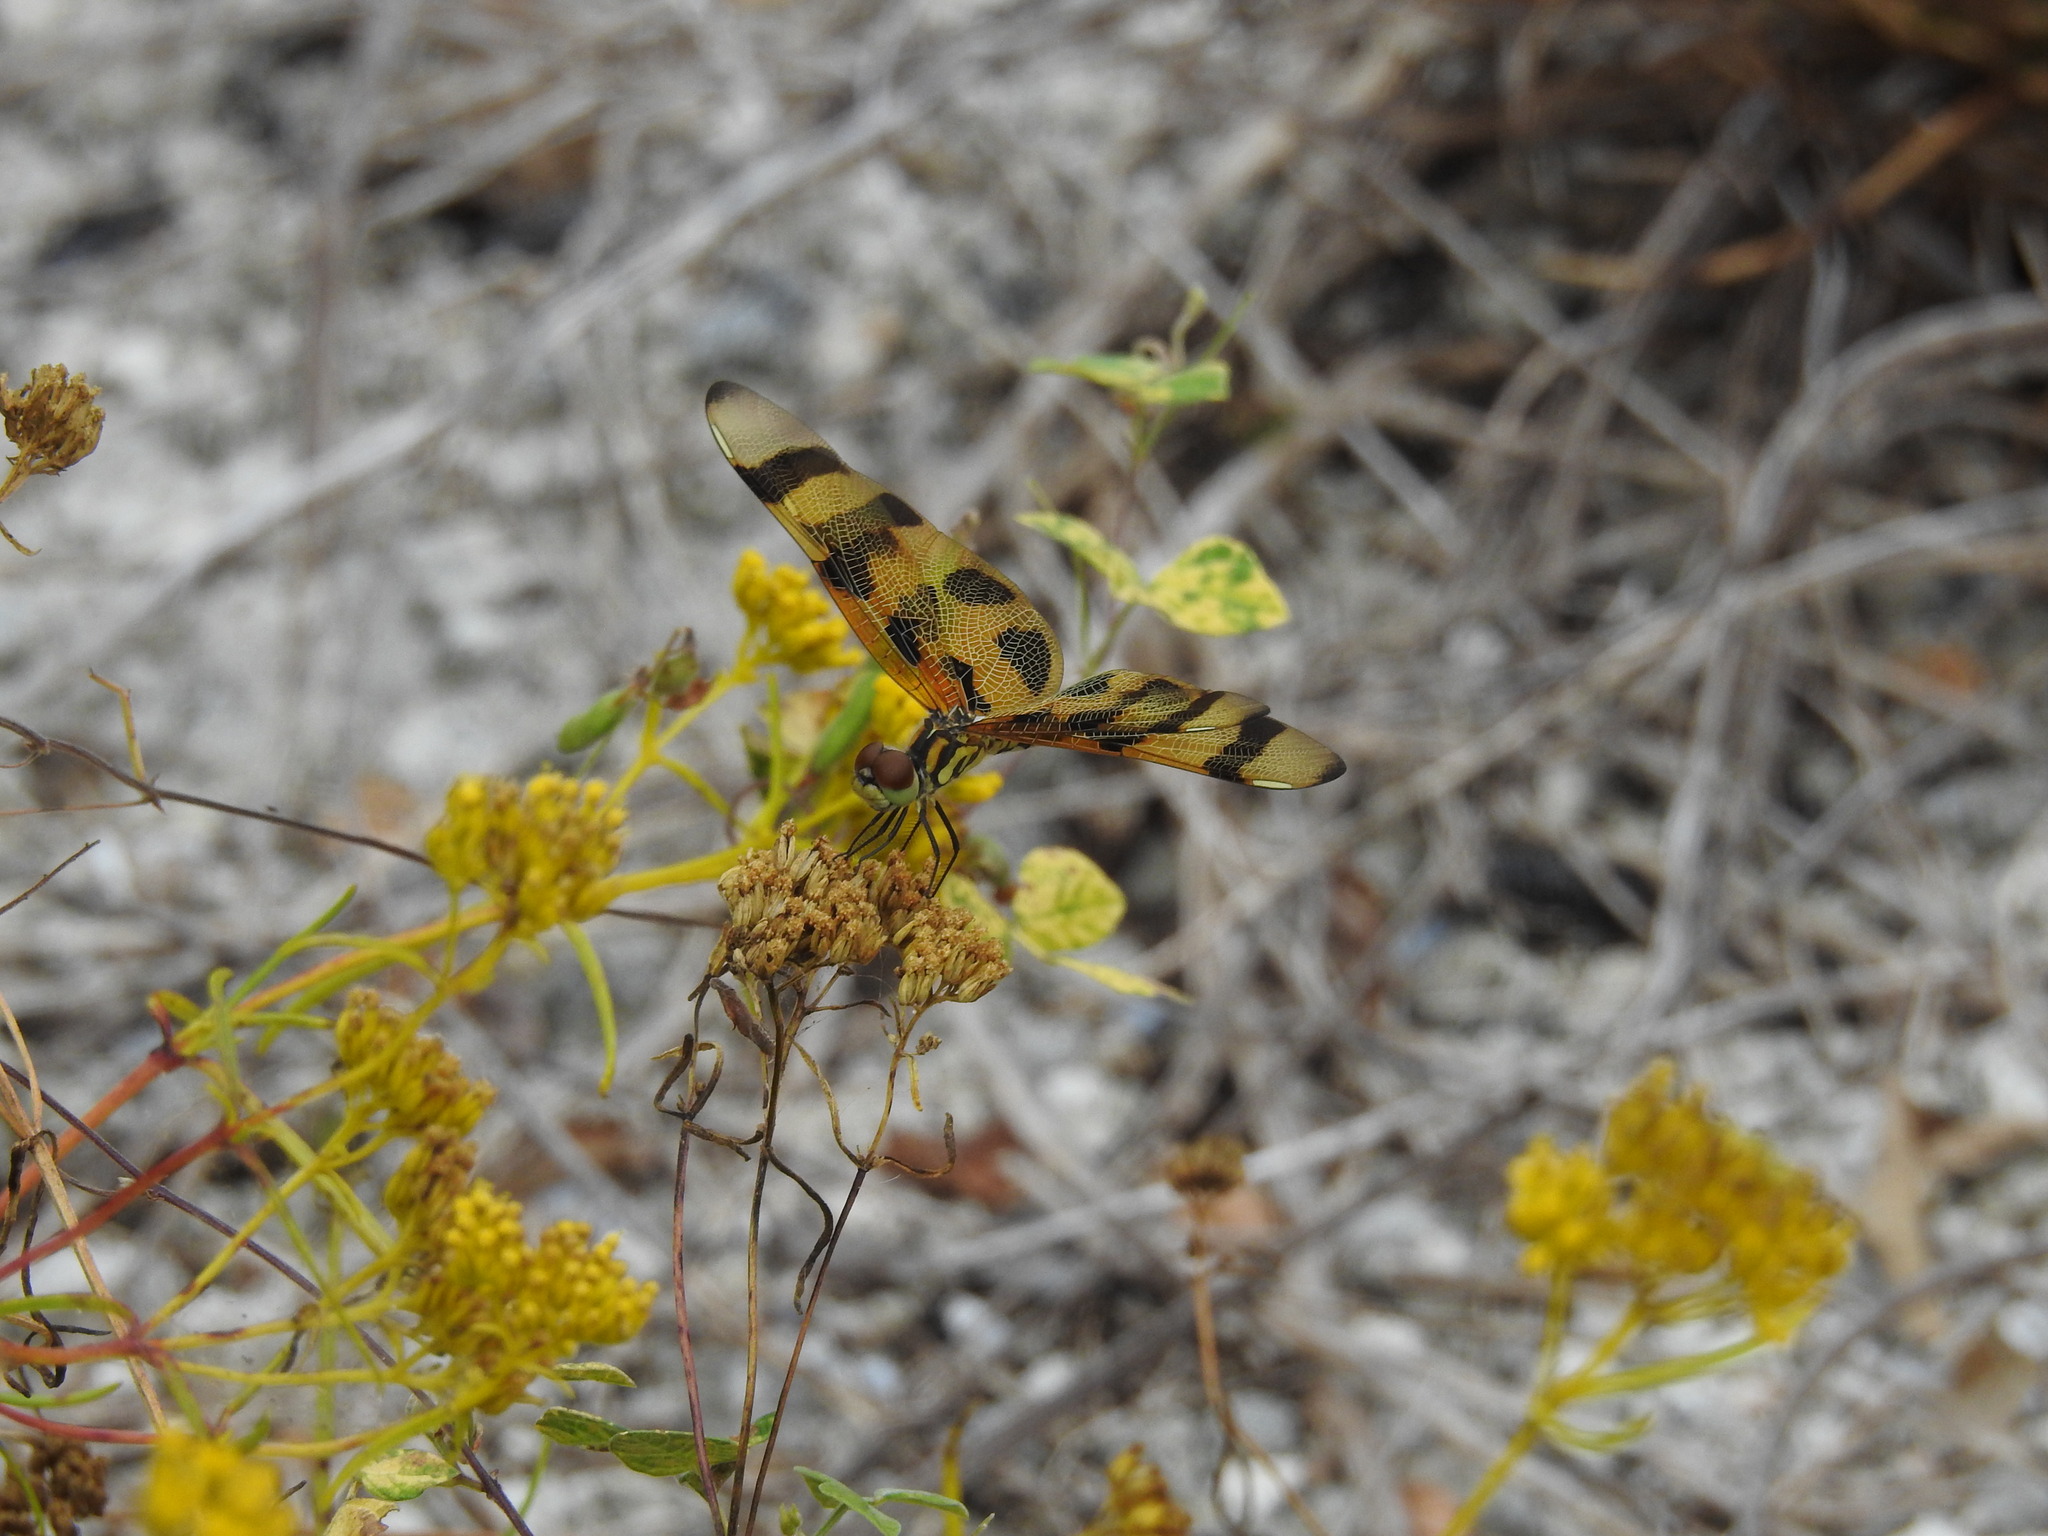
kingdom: Animalia
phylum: Arthropoda
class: Insecta
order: Odonata
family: Libellulidae
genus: Celithemis
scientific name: Celithemis eponina
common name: Halloween pennant
